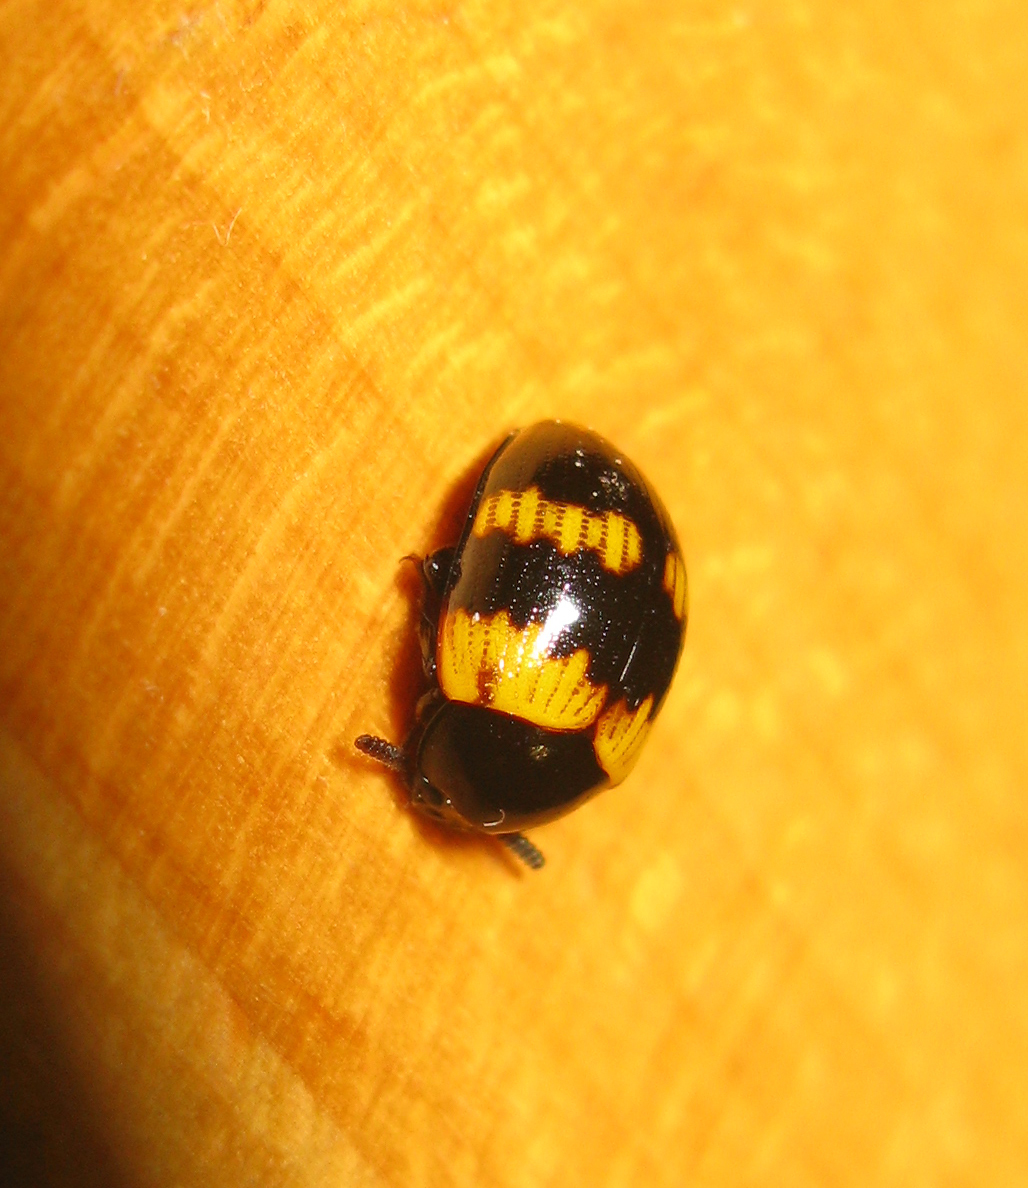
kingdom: Animalia
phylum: Arthropoda
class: Insecta
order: Coleoptera
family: Tenebrionidae
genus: Diaperis
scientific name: Diaperis boleti
